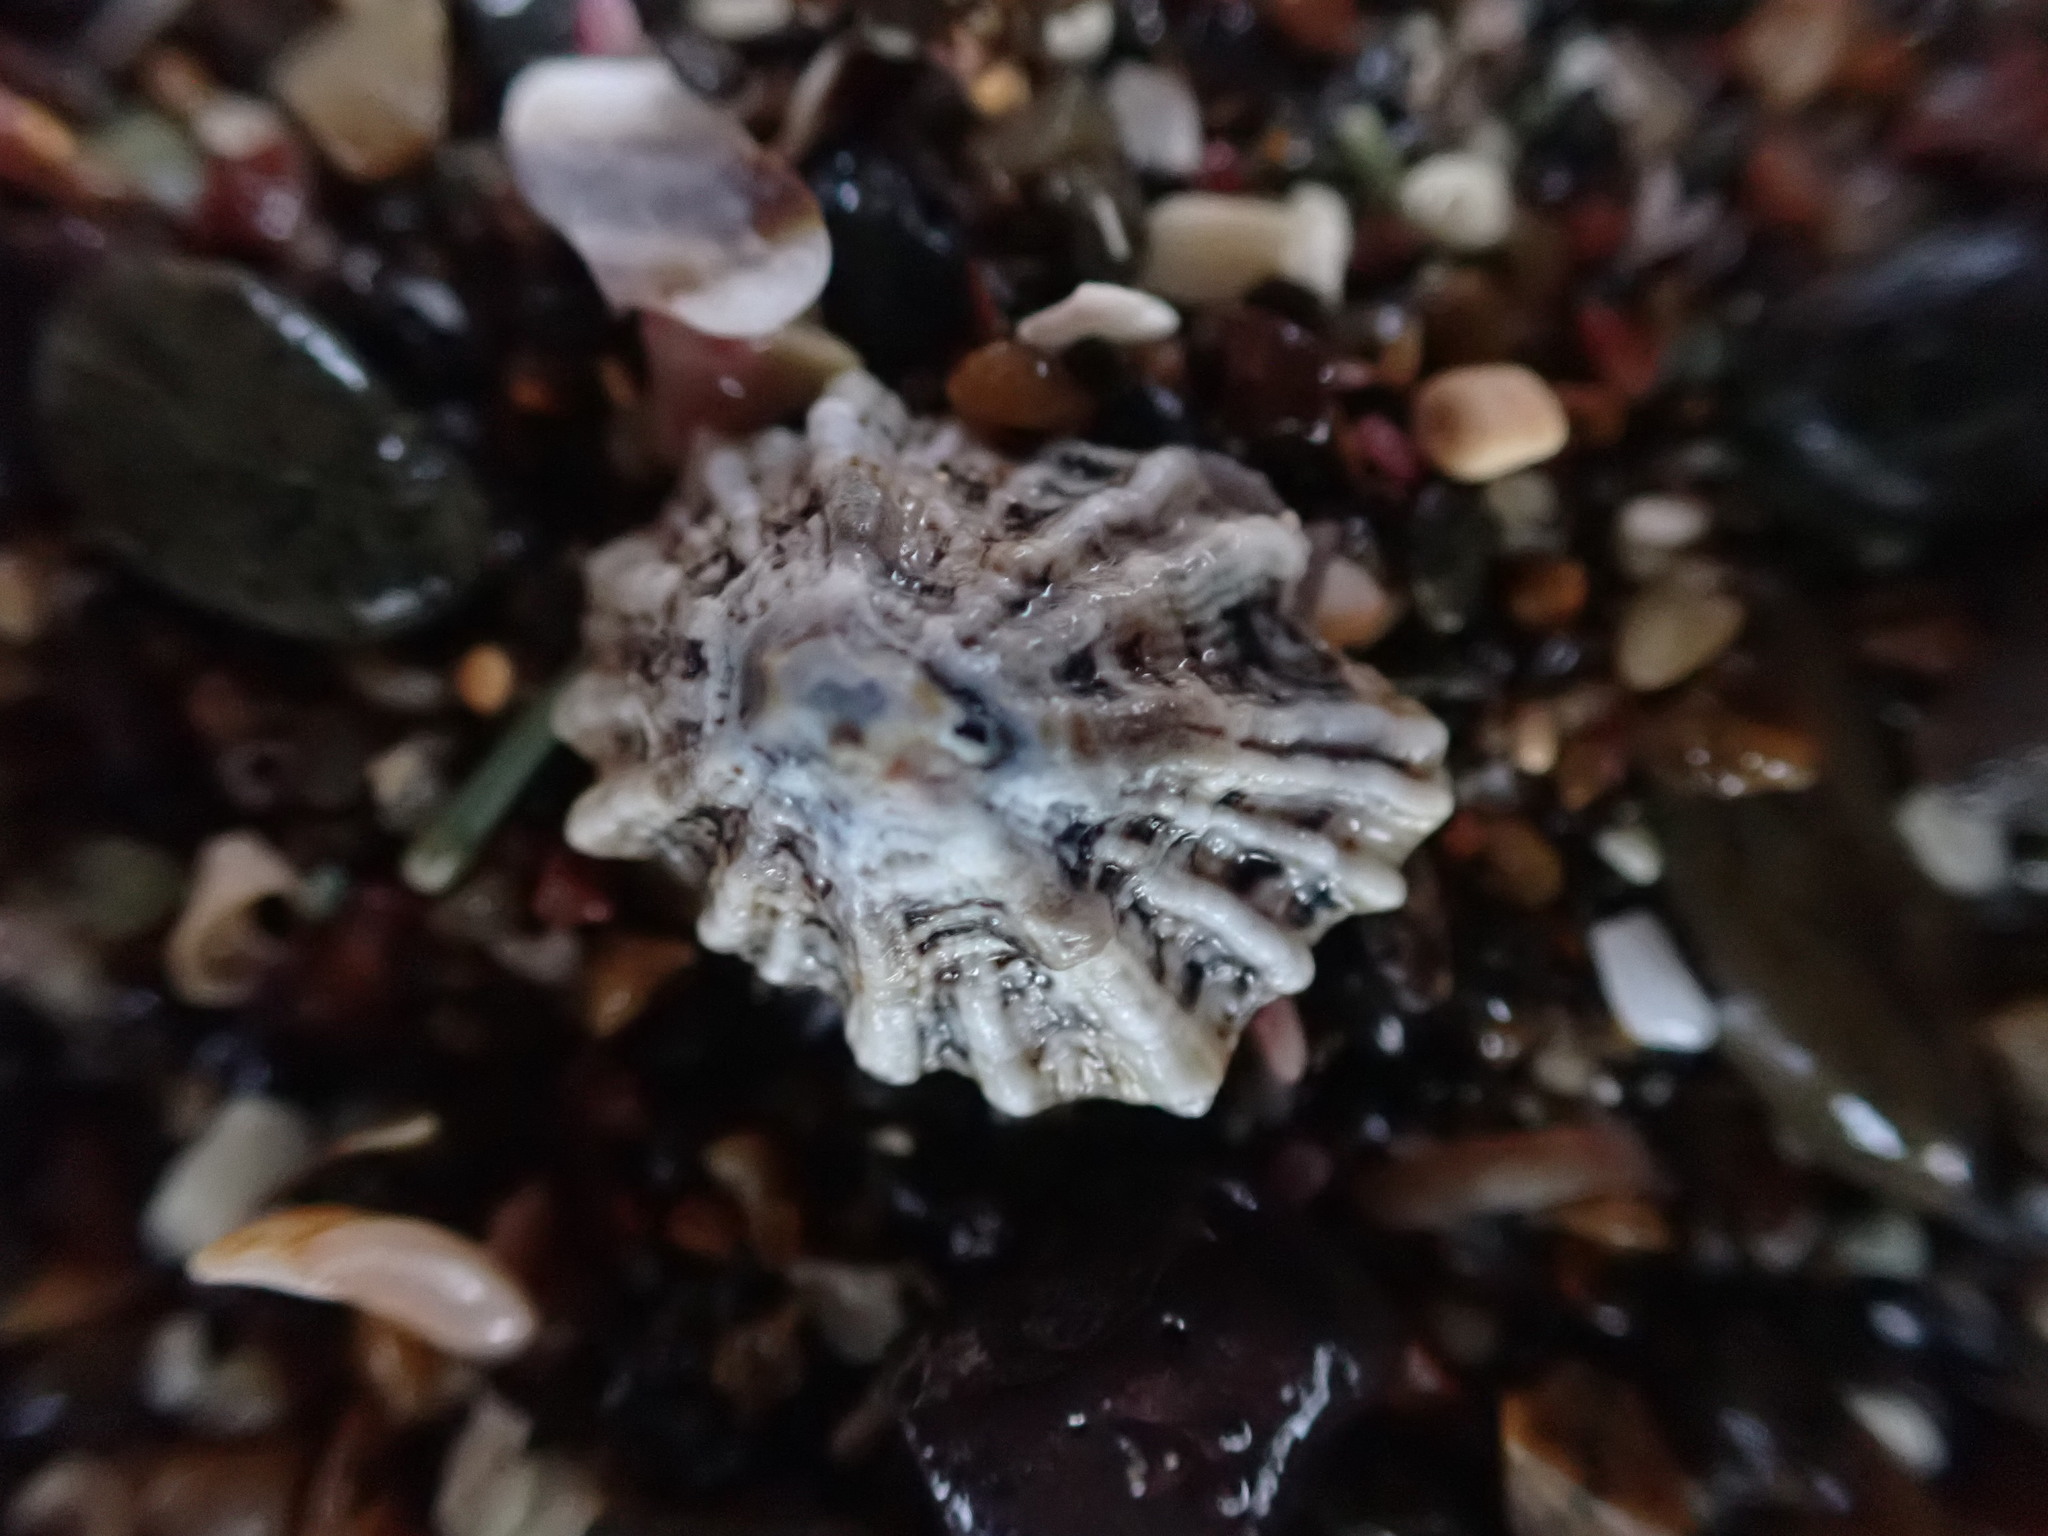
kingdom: Animalia
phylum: Mollusca
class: Gastropoda
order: Siphonariida
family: Siphonariidae
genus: Siphonaria
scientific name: Siphonaria australis
